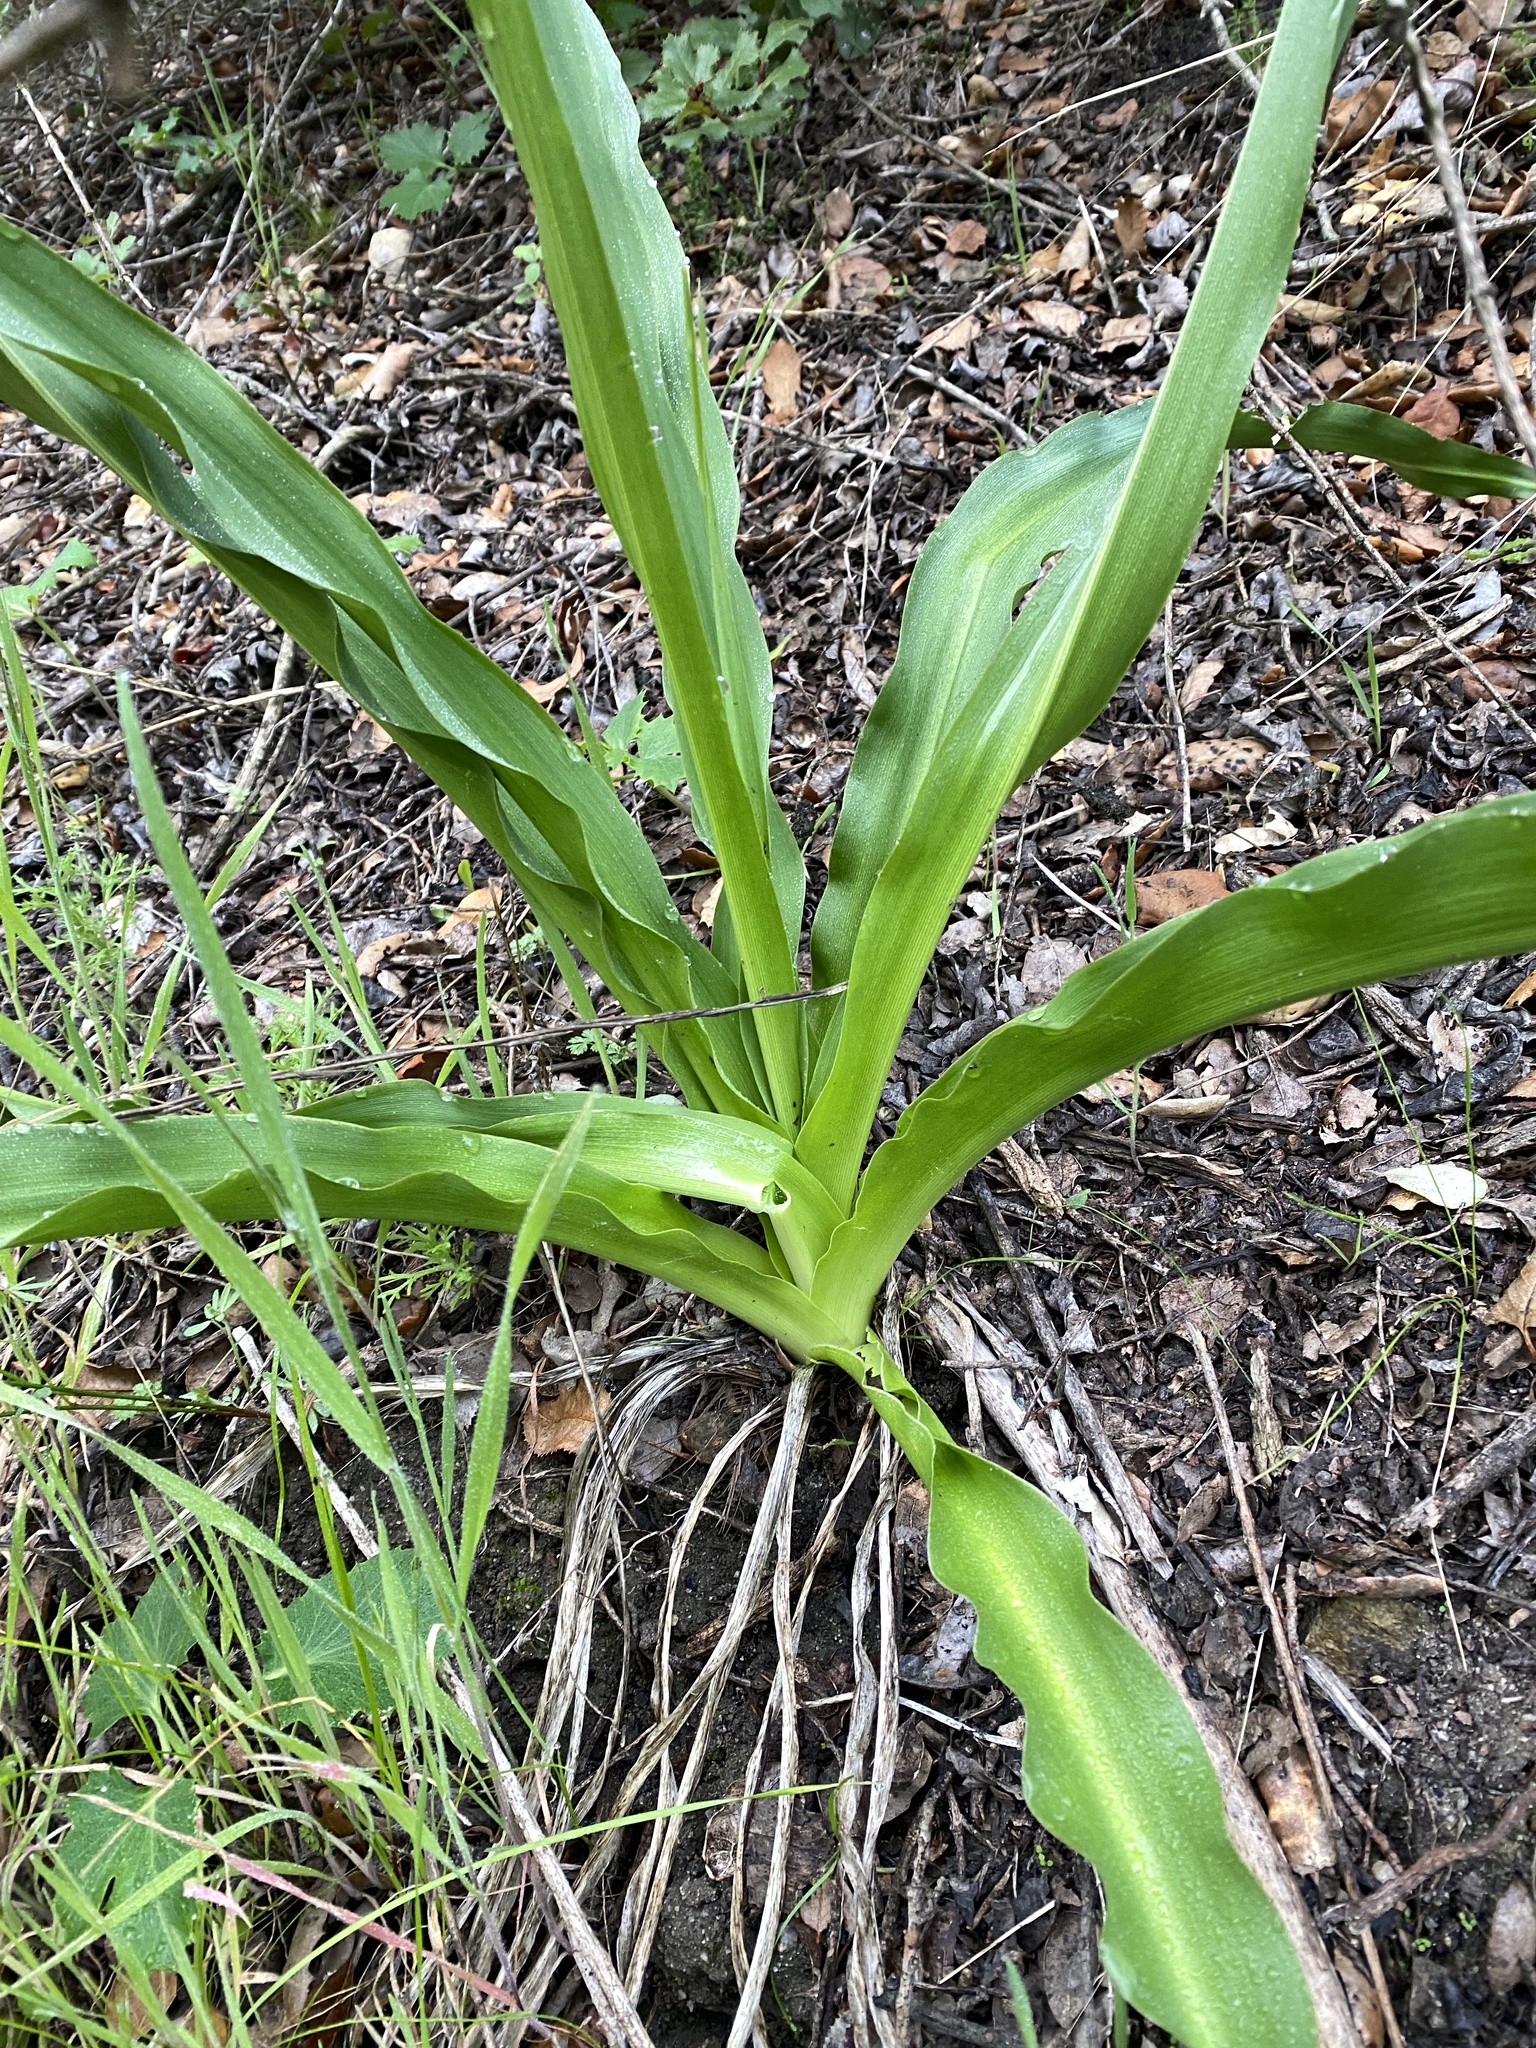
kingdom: Plantae
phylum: Tracheophyta
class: Liliopsida
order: Asparagales
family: Asparagaceae
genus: Chlorogalum
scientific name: Chlorogalum pomeridianum
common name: Amole
